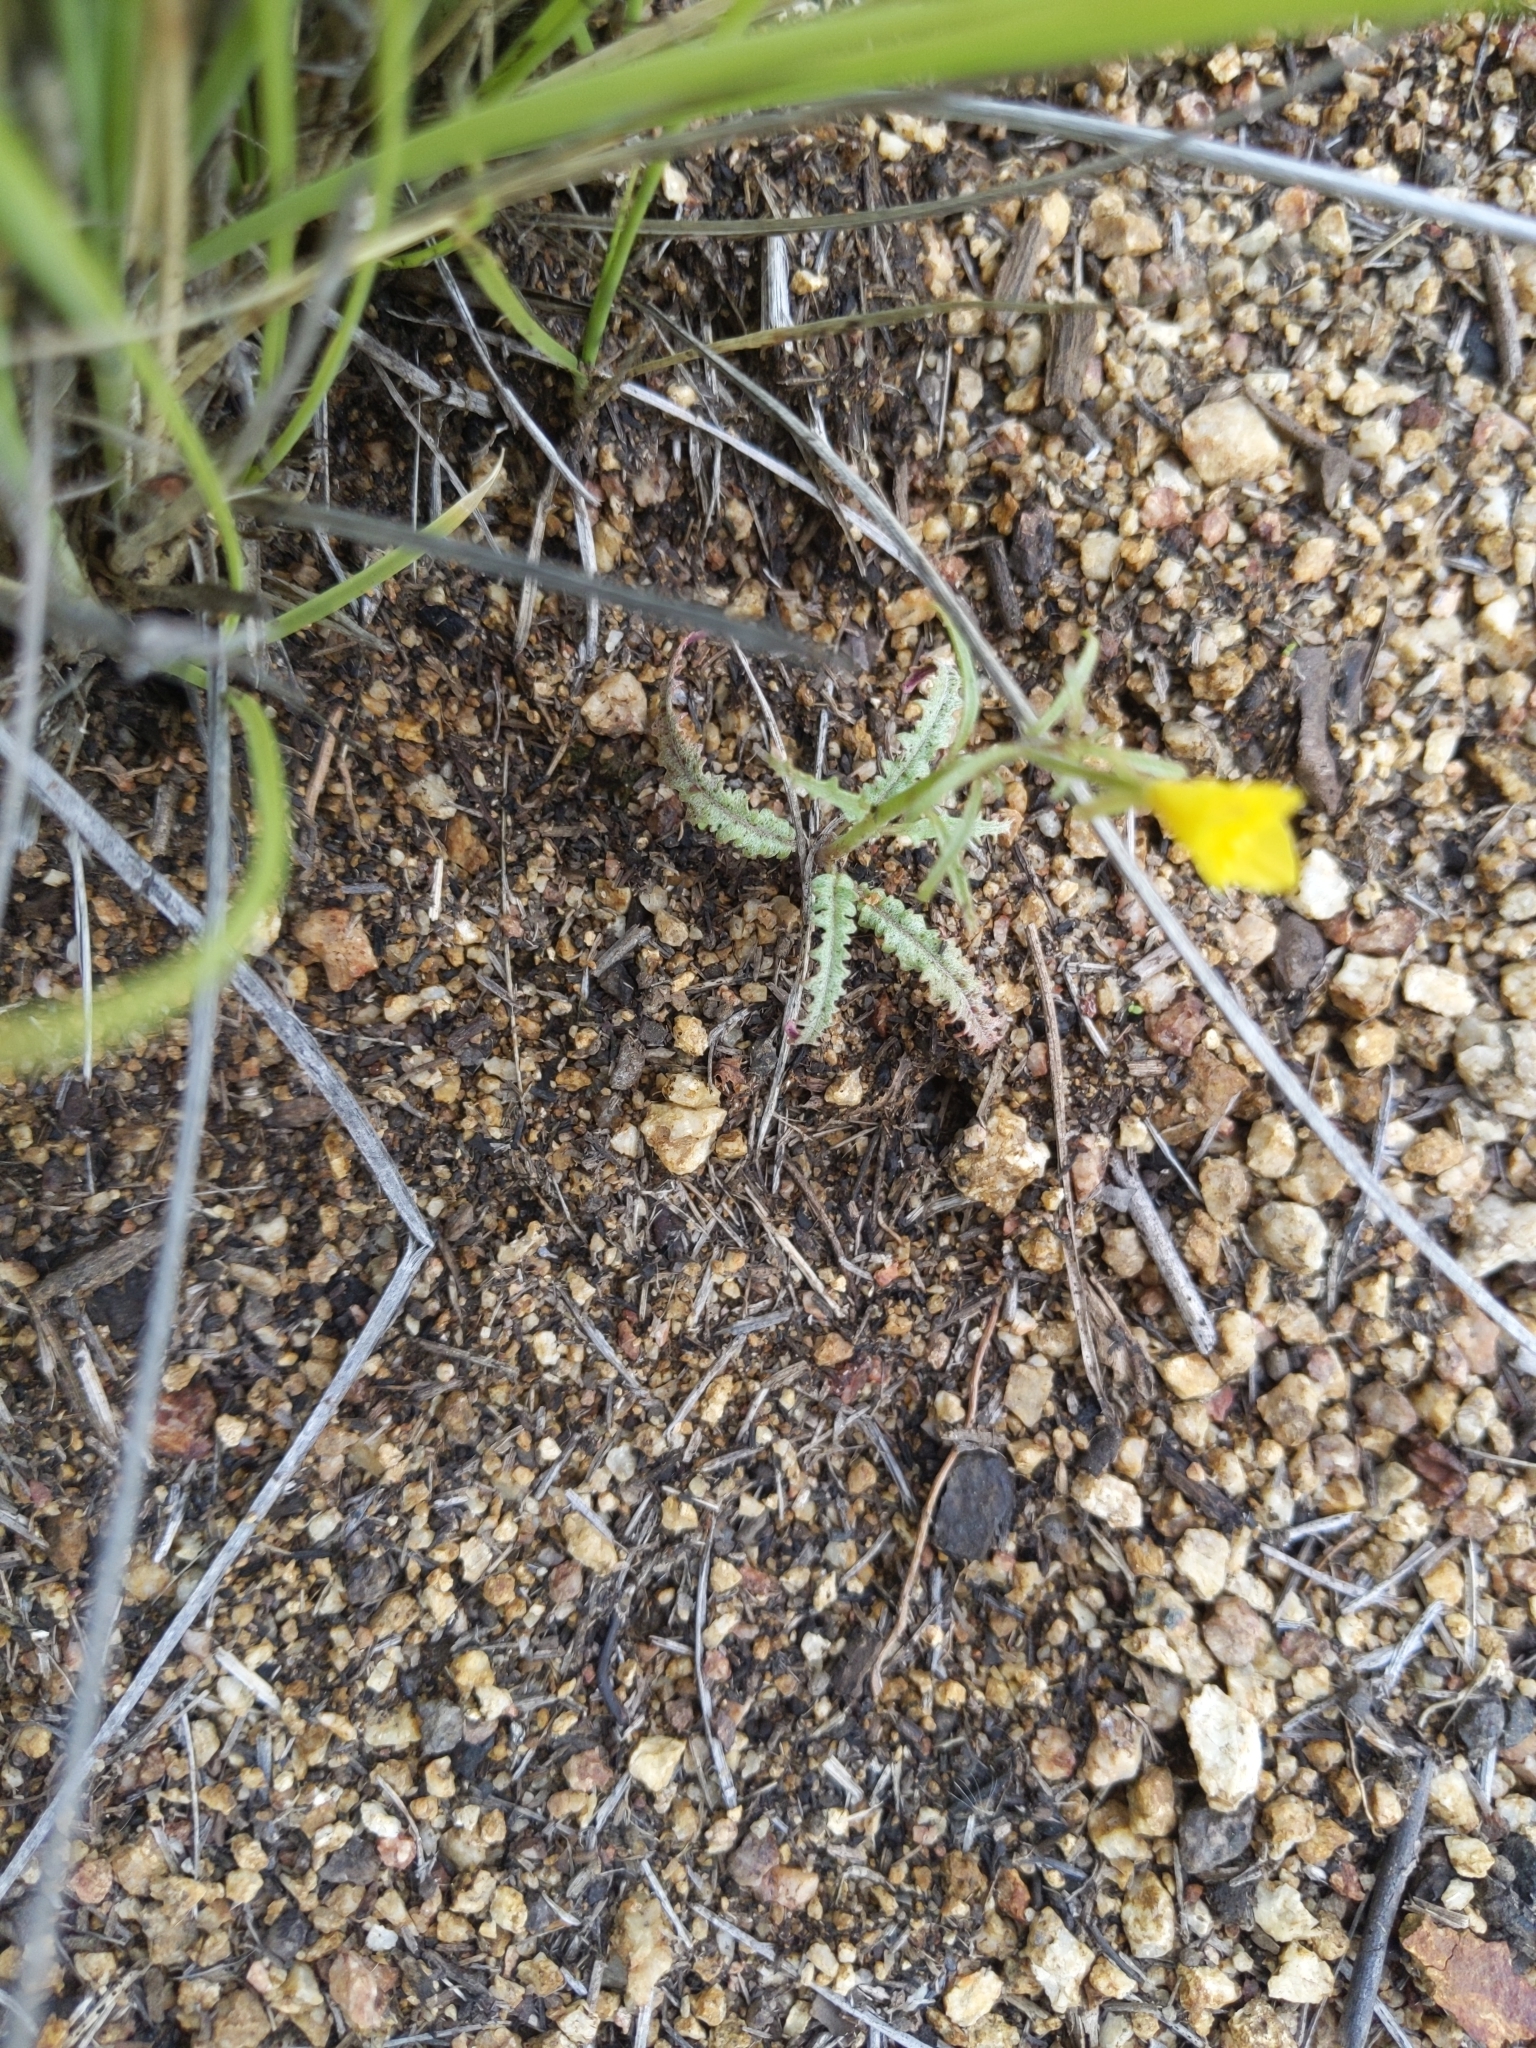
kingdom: Plantae
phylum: Tracheophyta
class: Magnoliopsida
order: Myrtales
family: Onagraceae
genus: Eulobus
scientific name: Eulobus californicus
